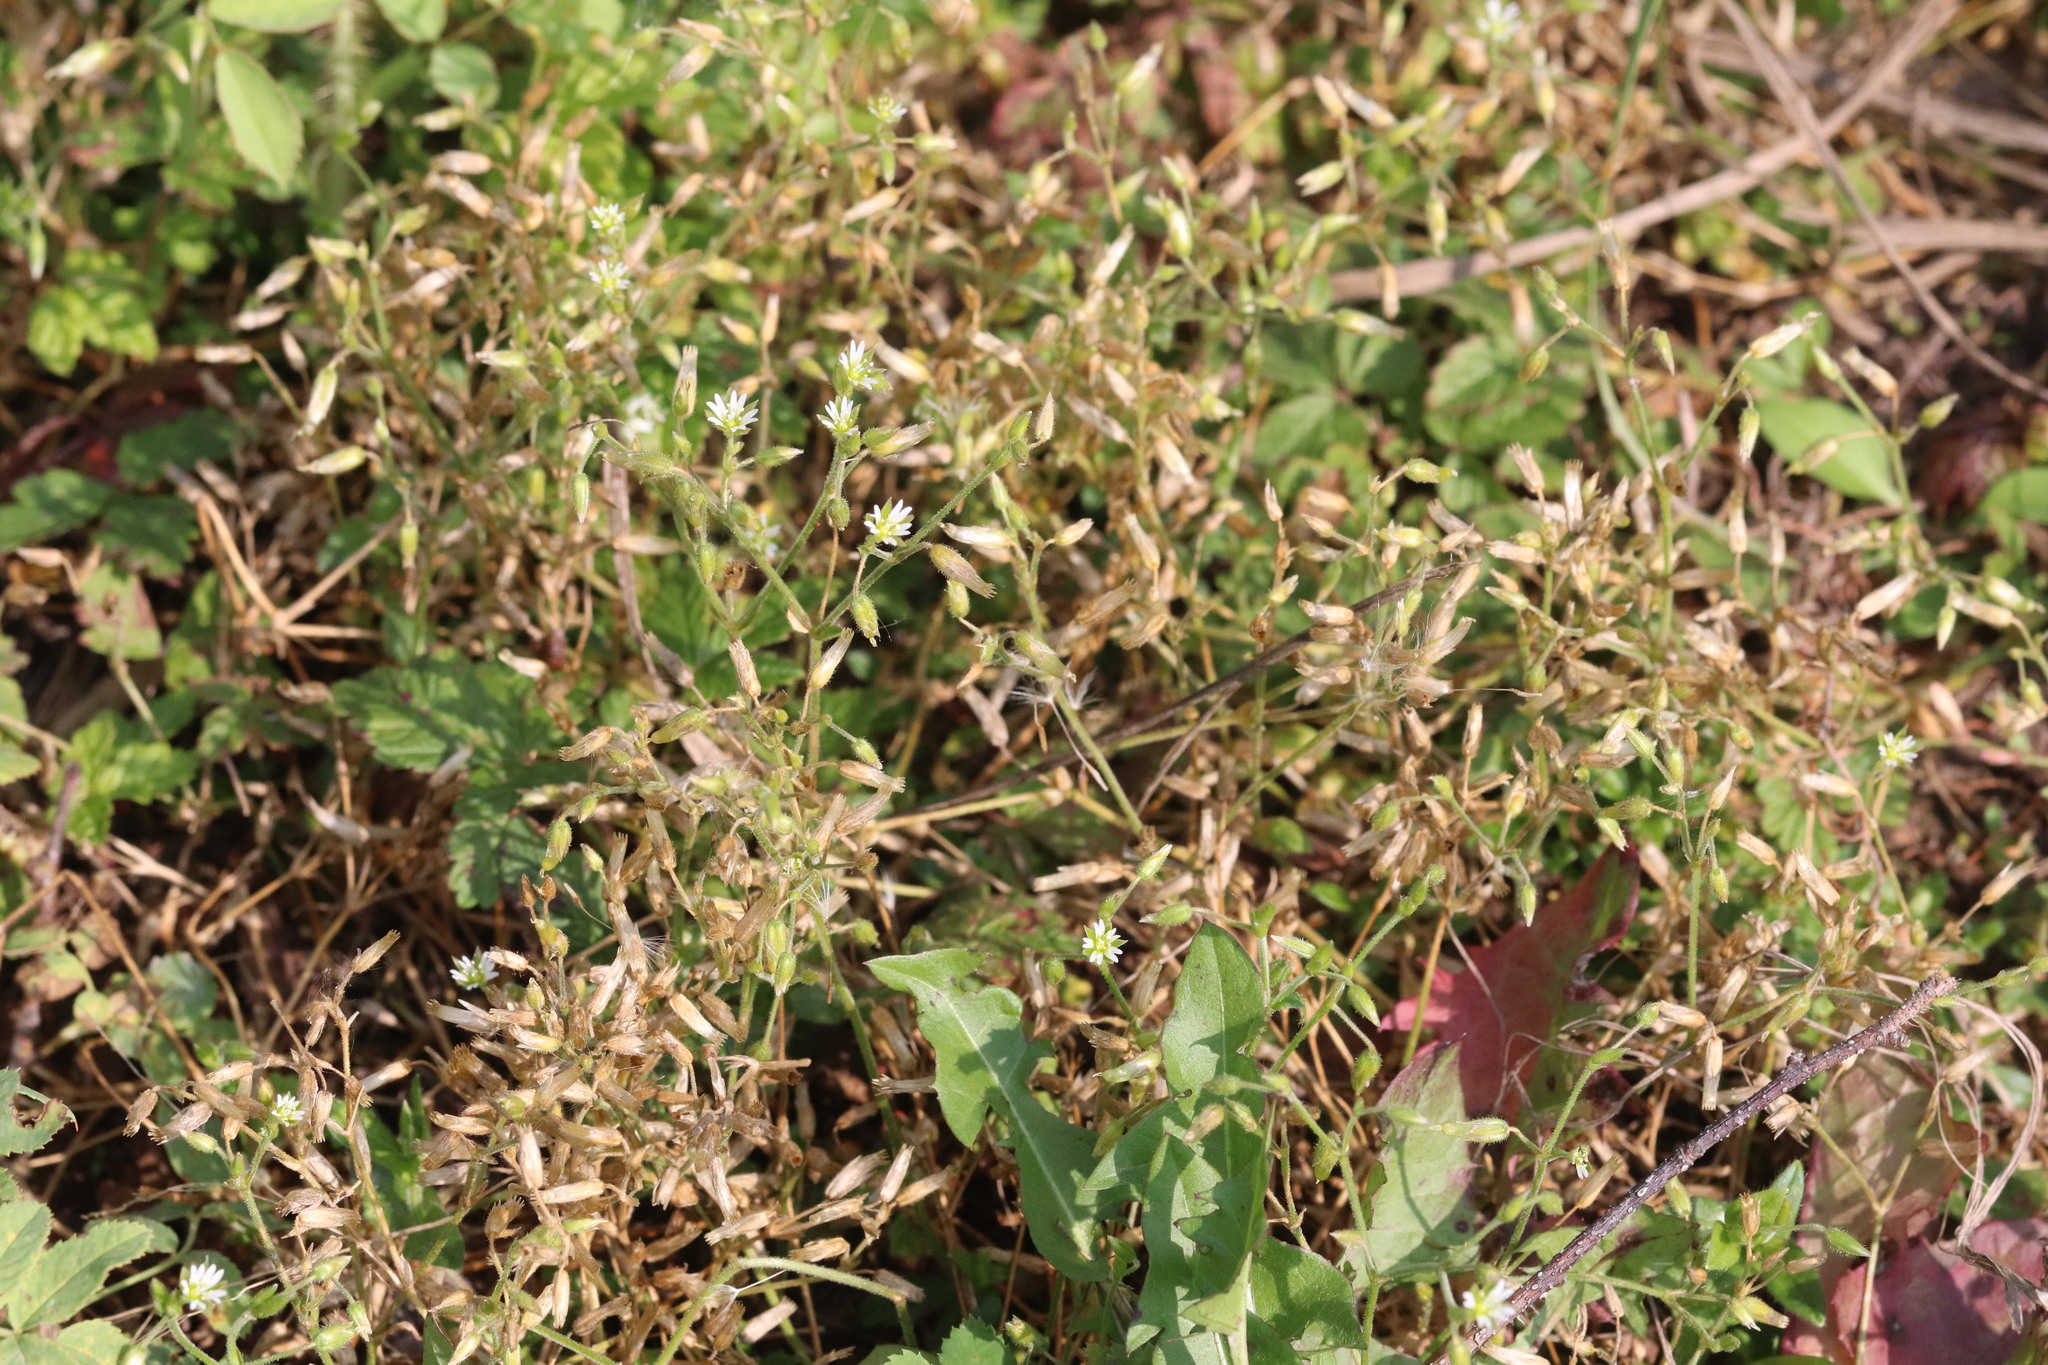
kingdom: Plantae
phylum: Tracheophyta
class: Magnoliopsida
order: Caryophyllales
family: Caryophyllaceae
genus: Cerastium
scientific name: Cerastium holosteoides
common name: Big chickweed
